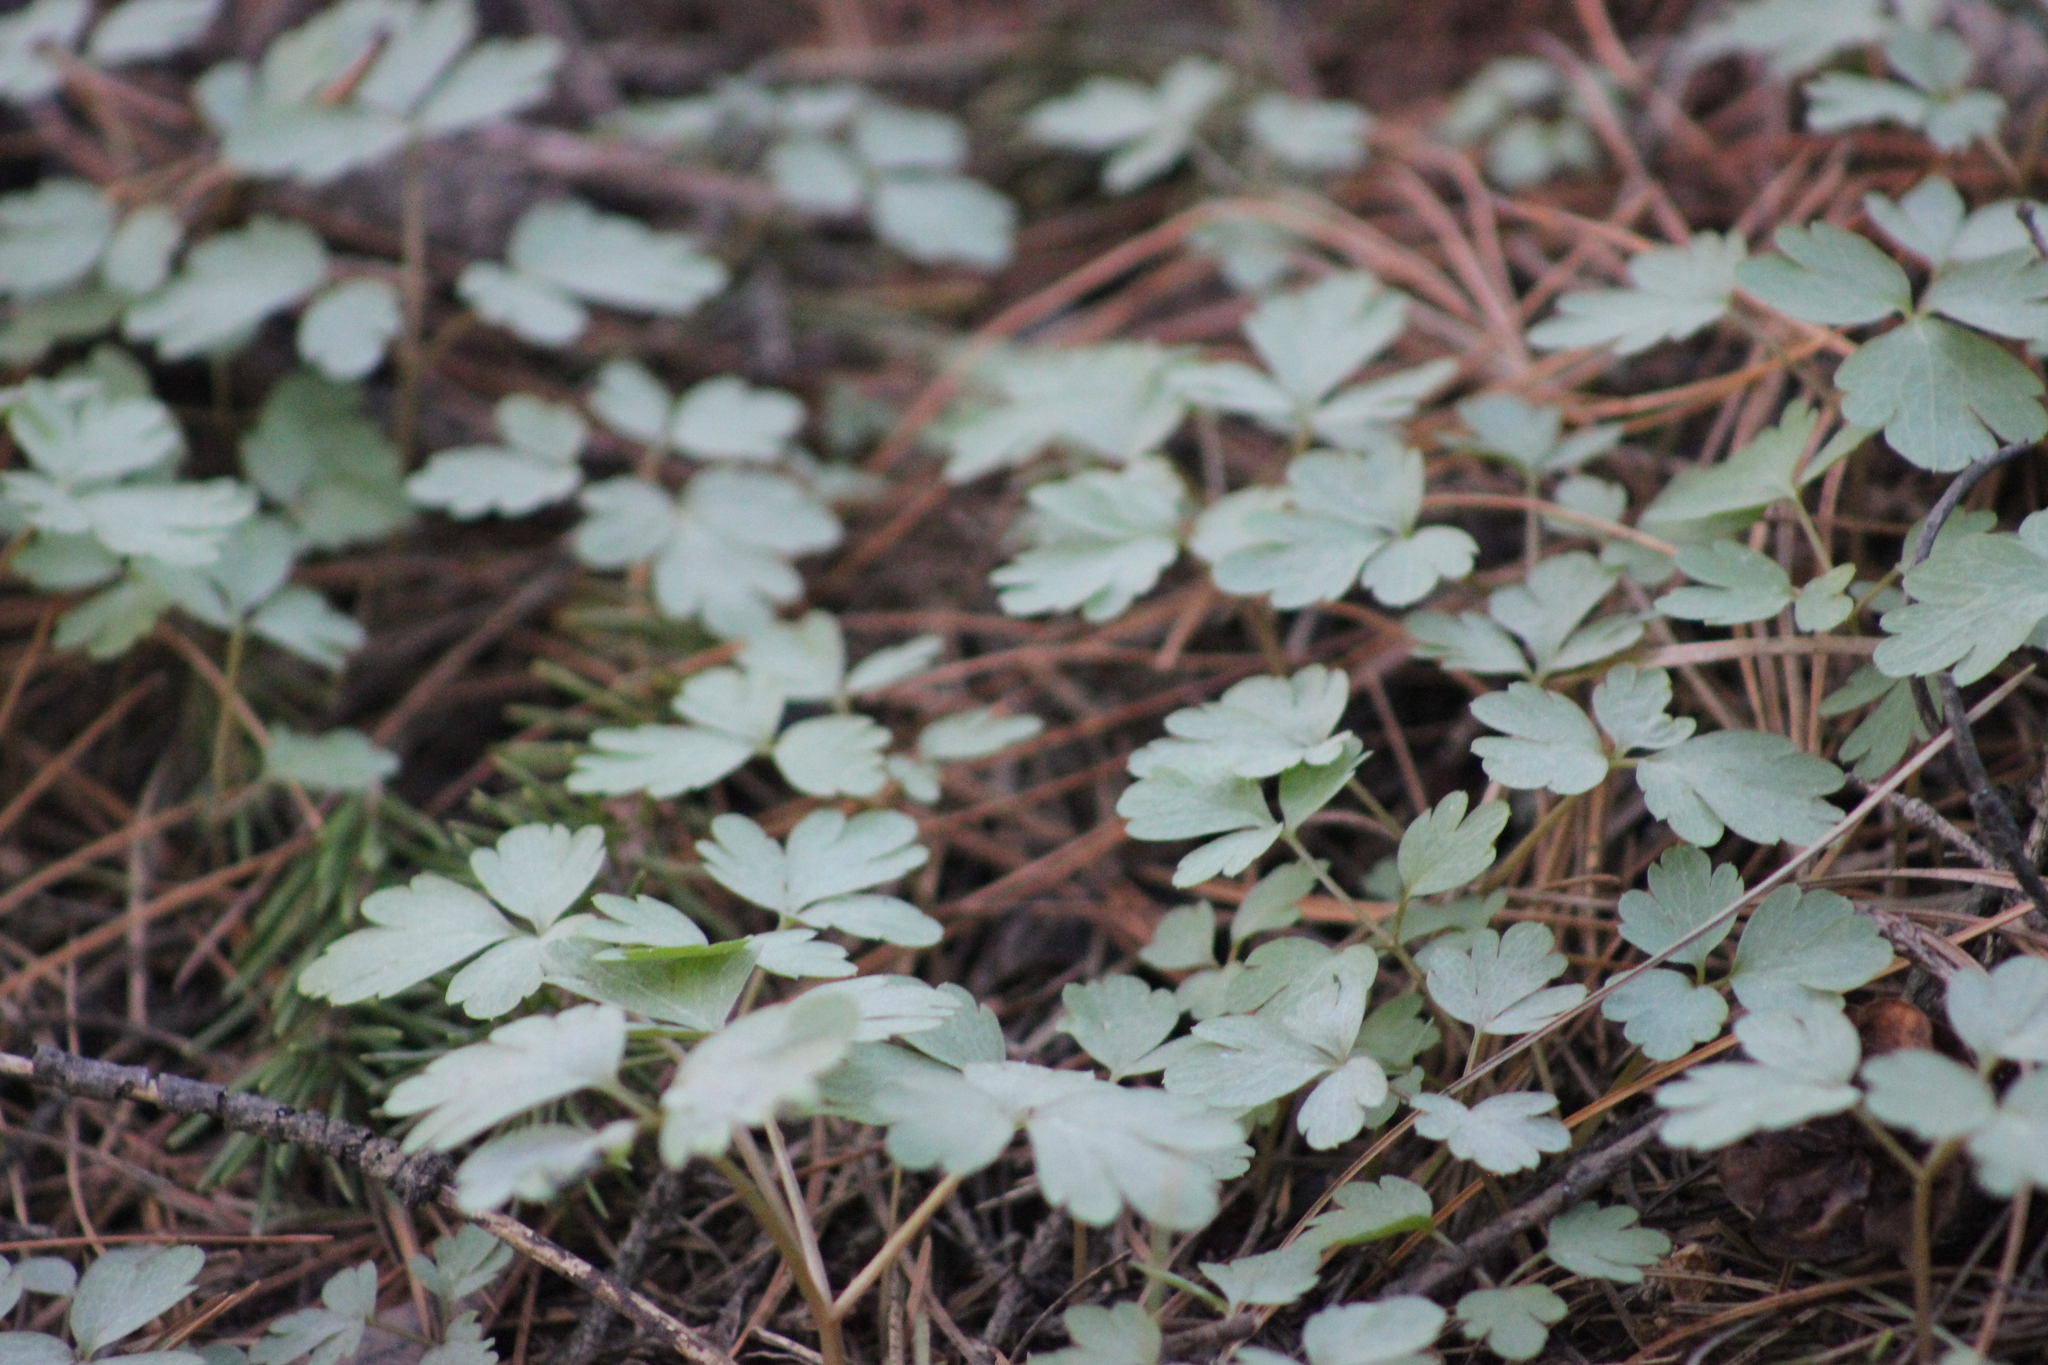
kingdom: Plantae
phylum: Tracheophyta
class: Magnoliopsida
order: Dipsacales
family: Viburnaceae
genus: Adoxa
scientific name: Adoxa moschatellina
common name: Moschatel
